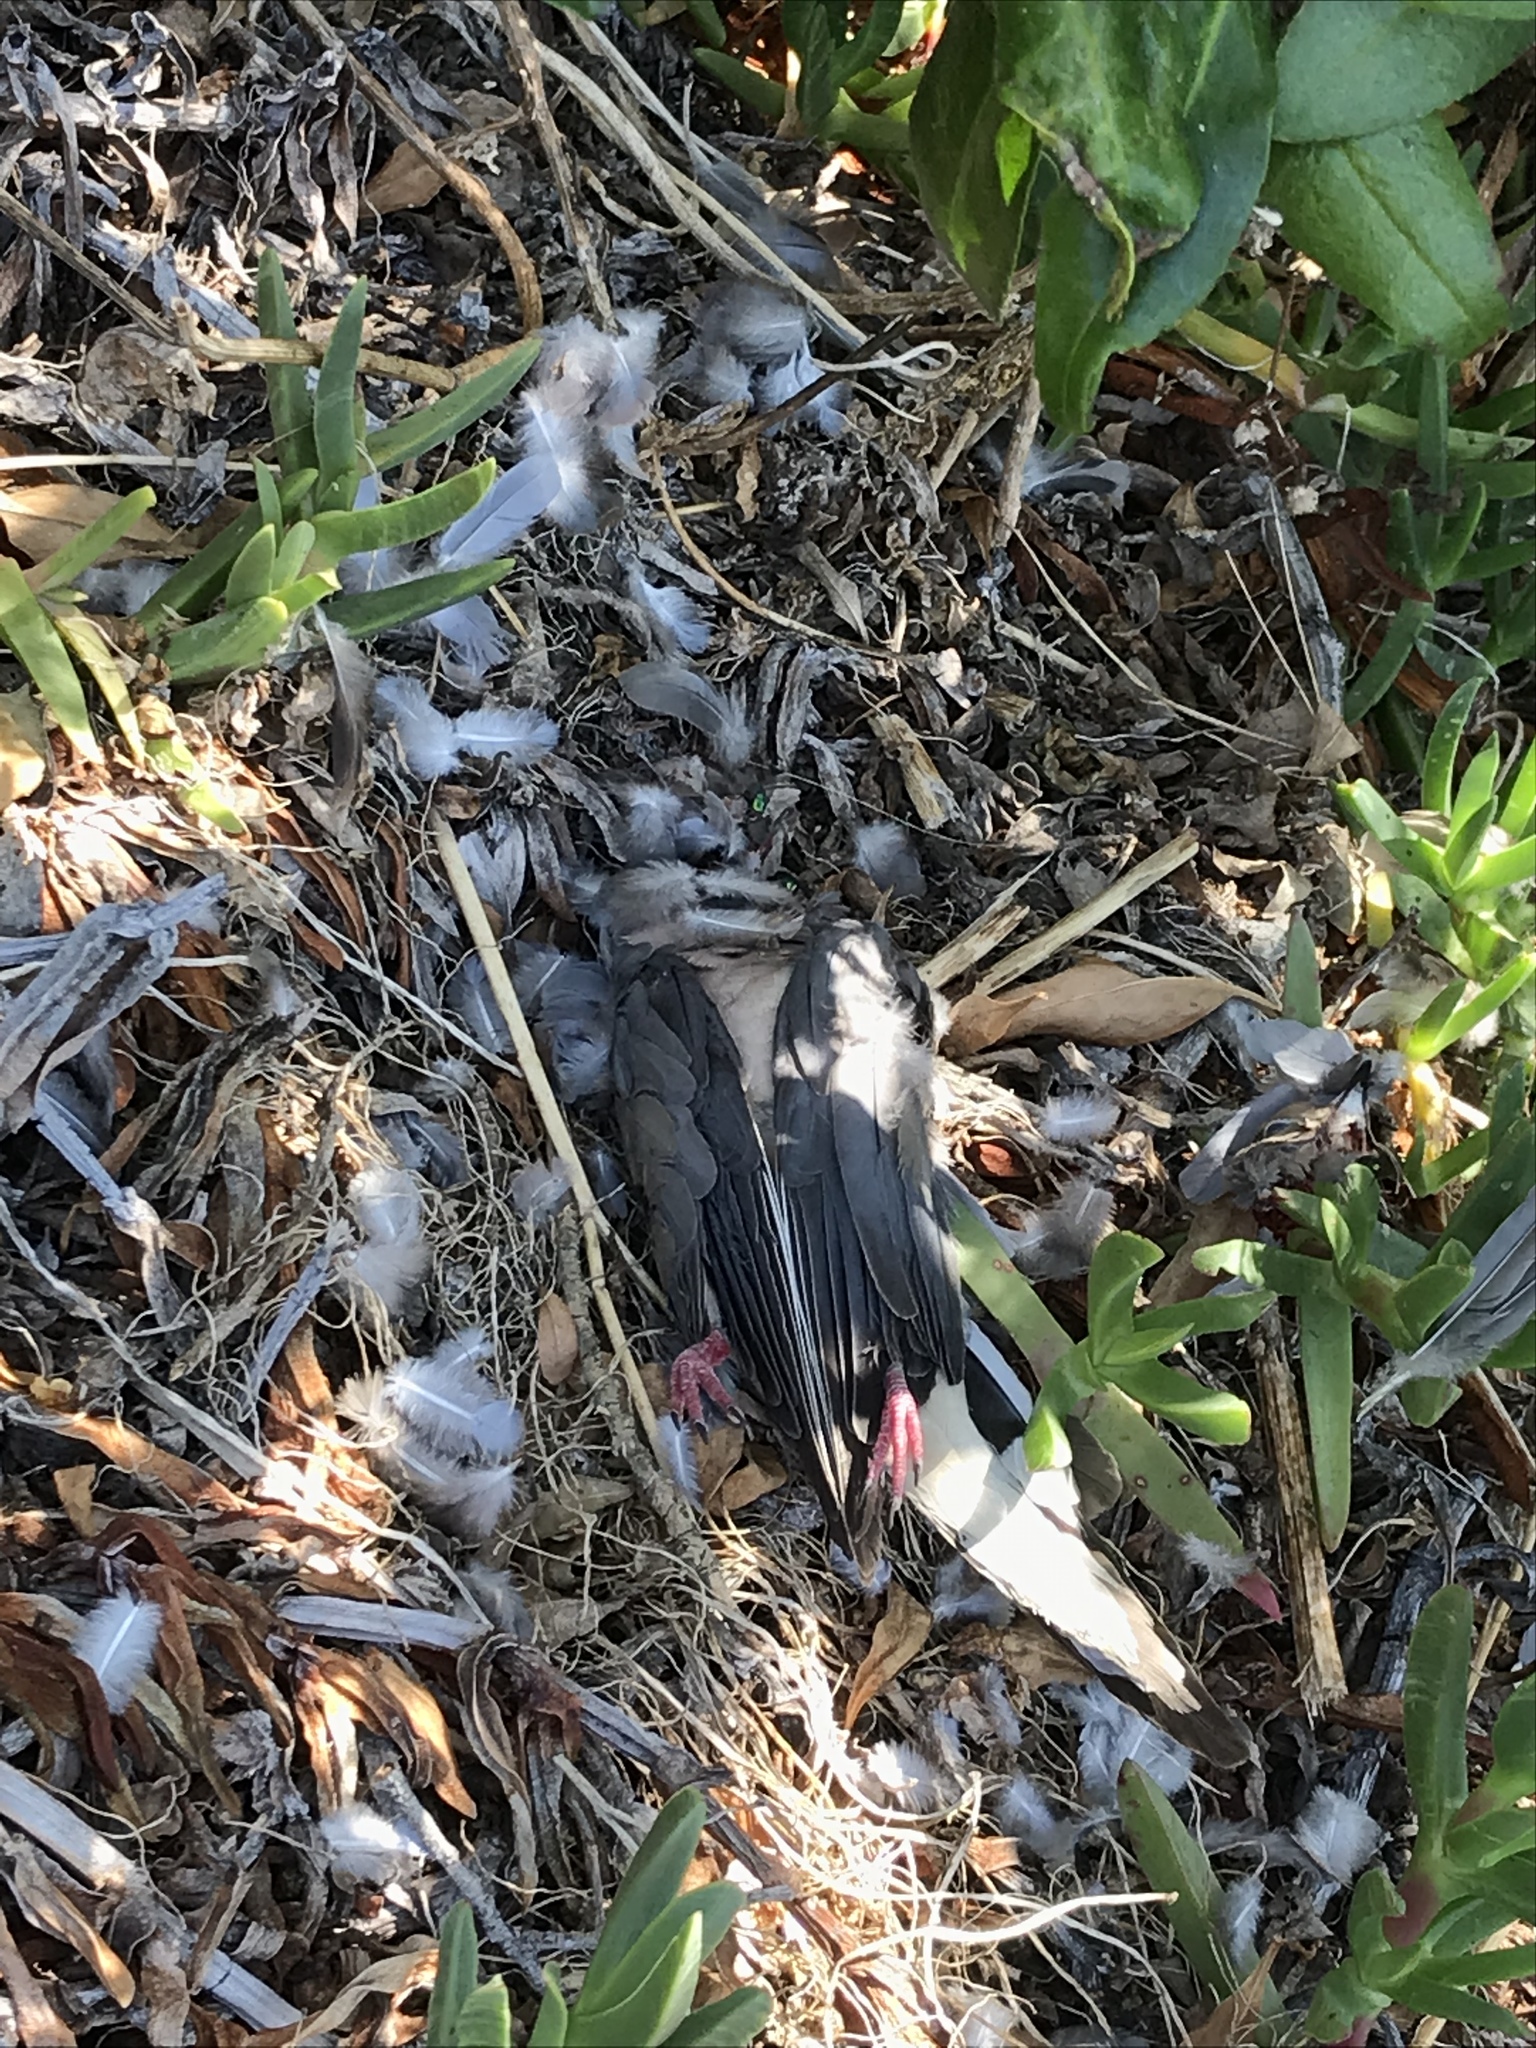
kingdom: Animalia
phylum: Chordata
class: Aves
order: Columbiformes
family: Columbidae
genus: Zenaida
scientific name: Zenaida macroura
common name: Mourning dove
